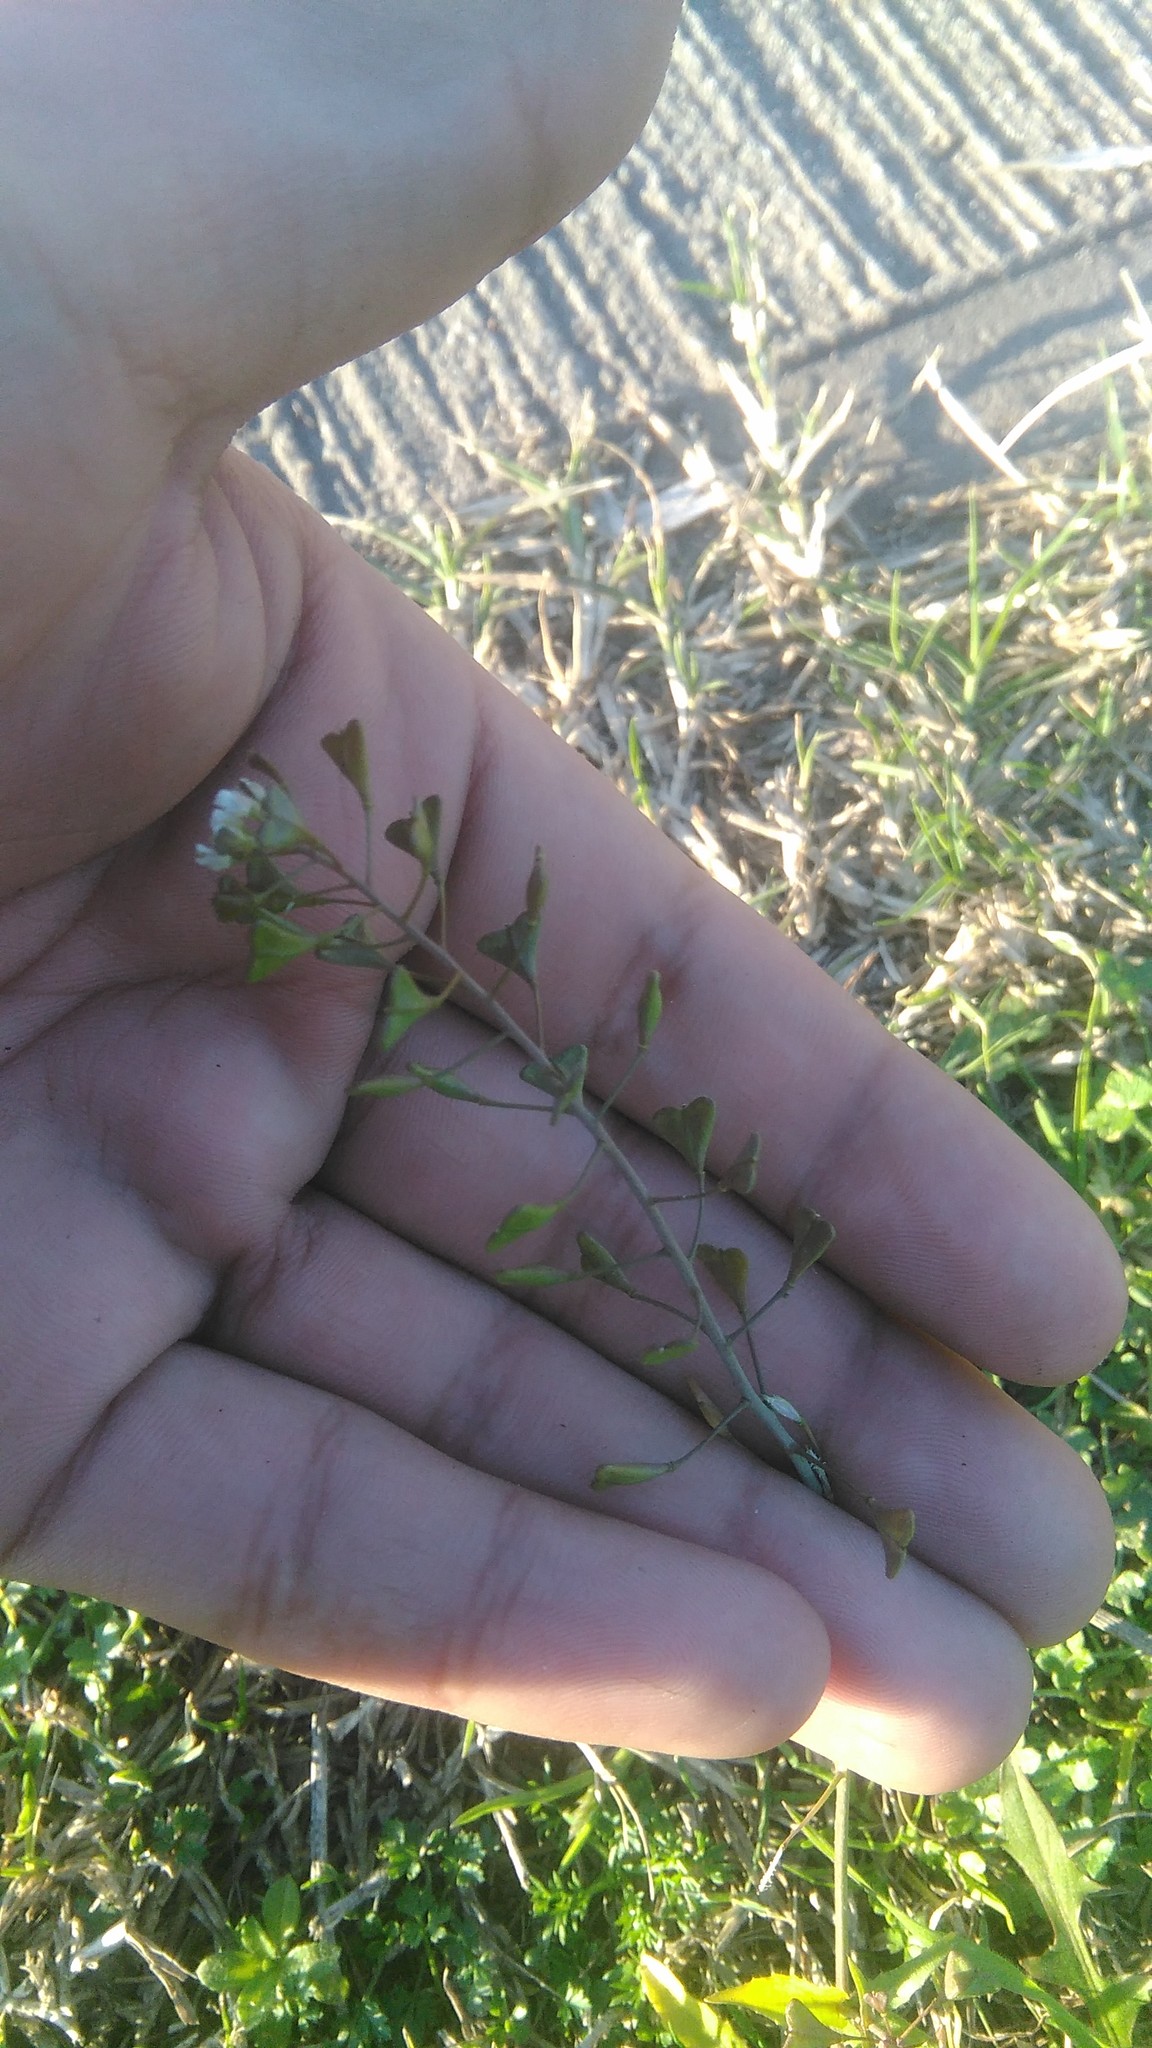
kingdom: Plantae
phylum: Tracheophyta
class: Magnoliopsida
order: Brassicales
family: Brassicaceae
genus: Capsella
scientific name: Capsella bursa-pastoris
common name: Shepherd's purse
